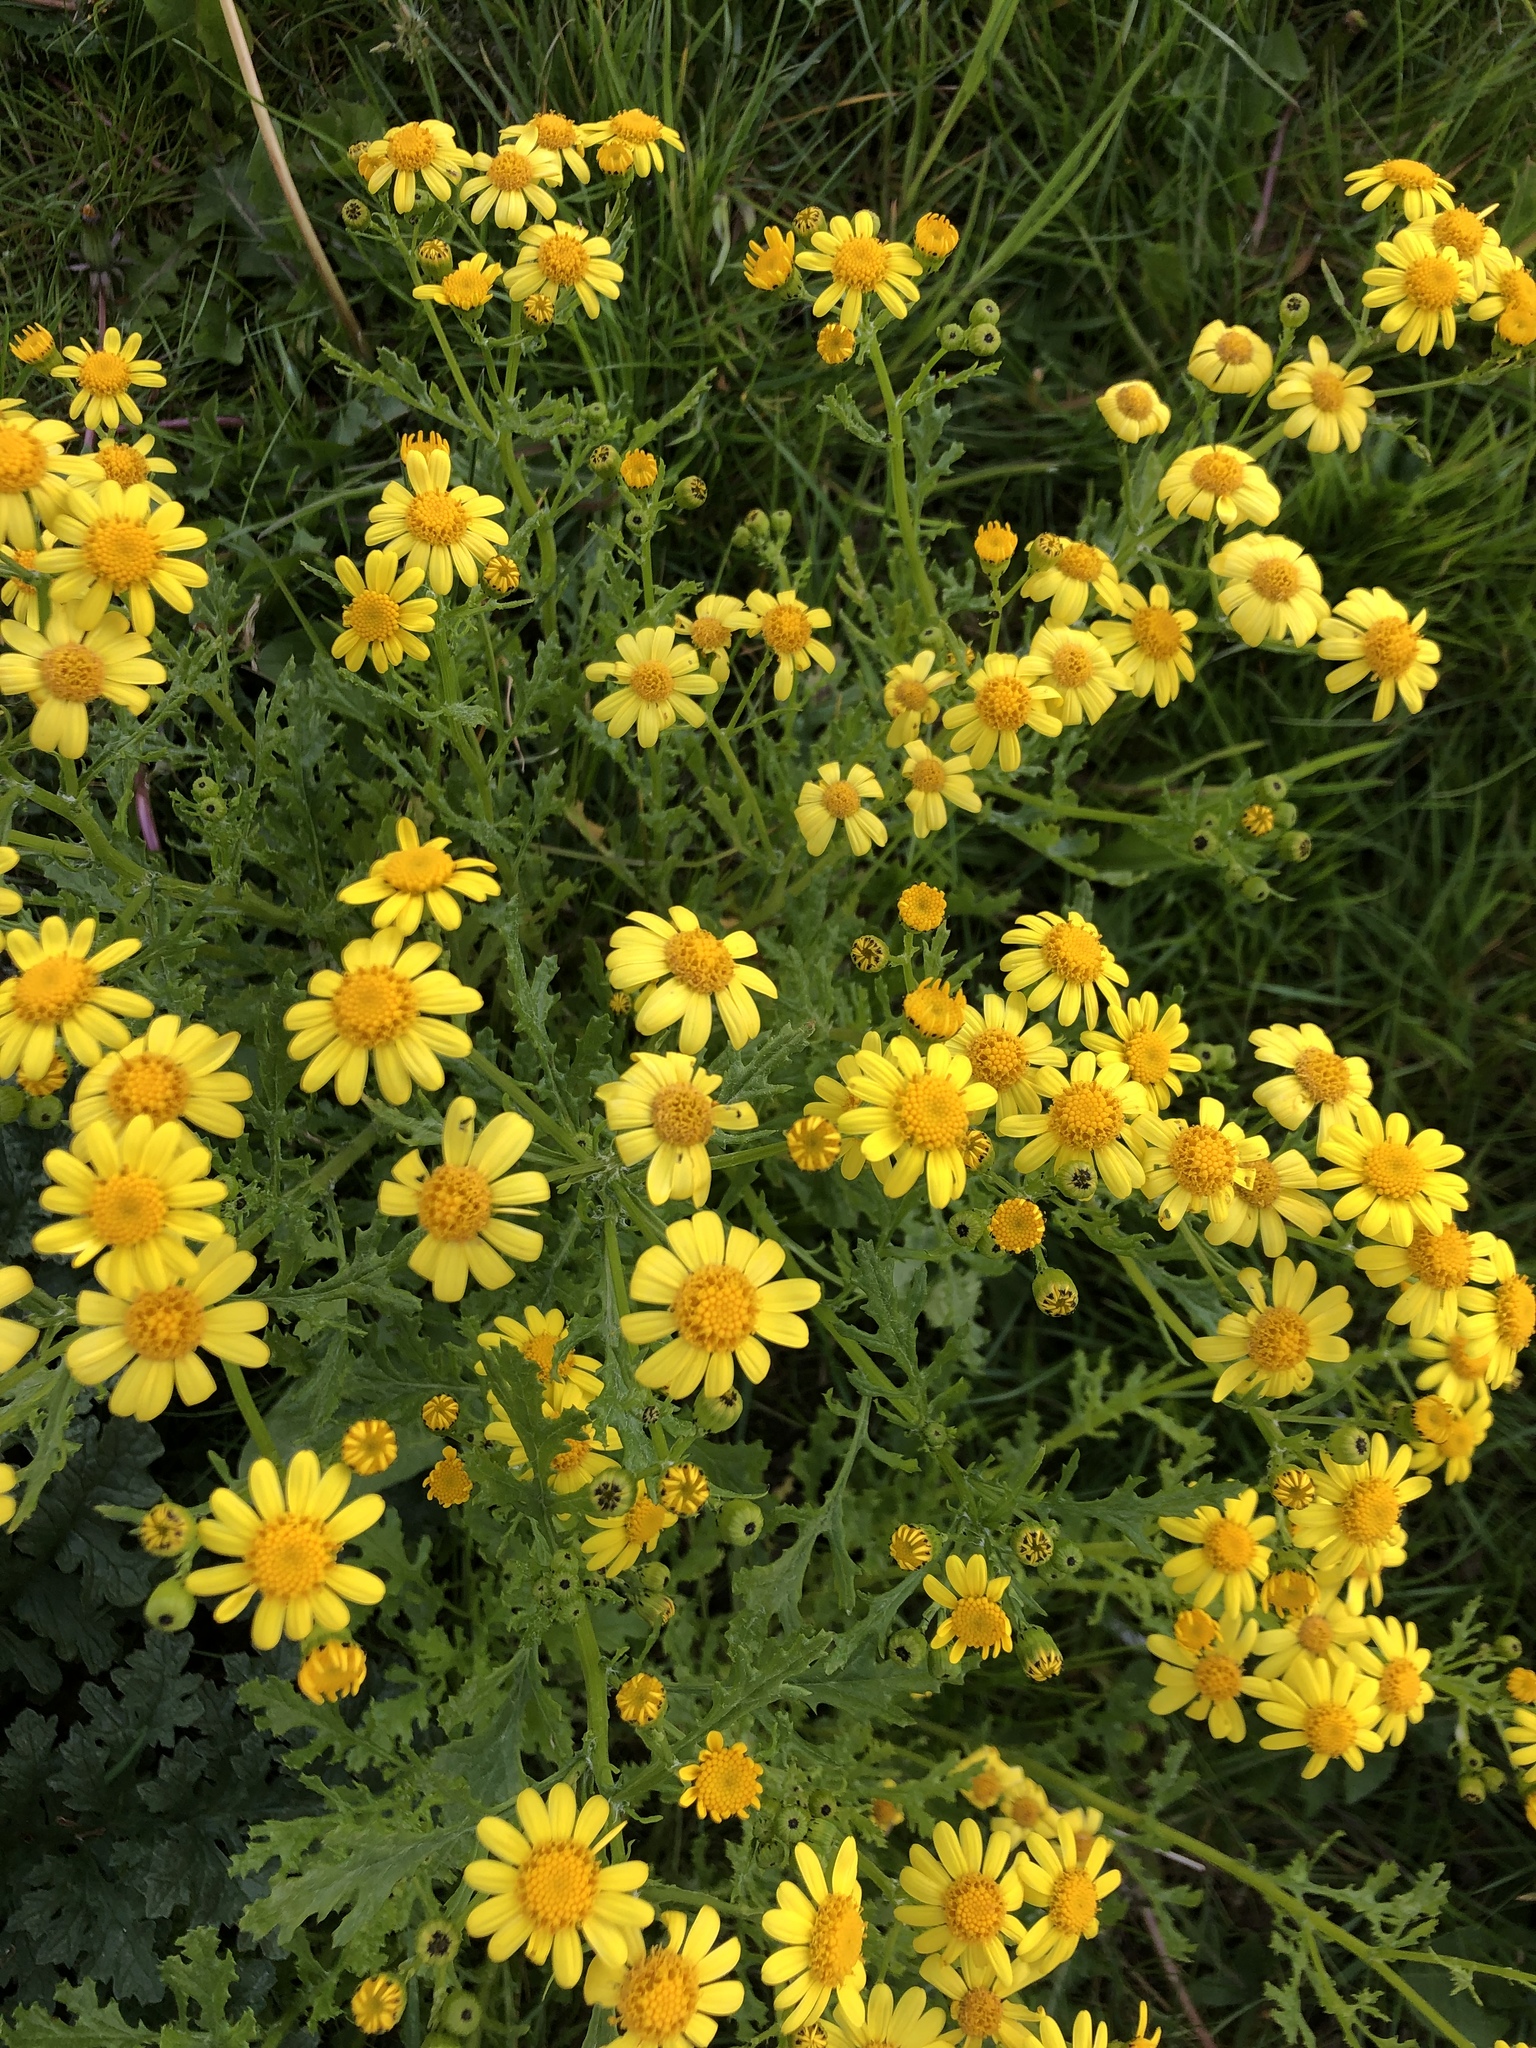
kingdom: Plantae
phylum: Tracheophyta
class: Magnoliopsida
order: Asterales
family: Asteraceae
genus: Senecio
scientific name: Senecio squalidus
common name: Oxford ragwort
